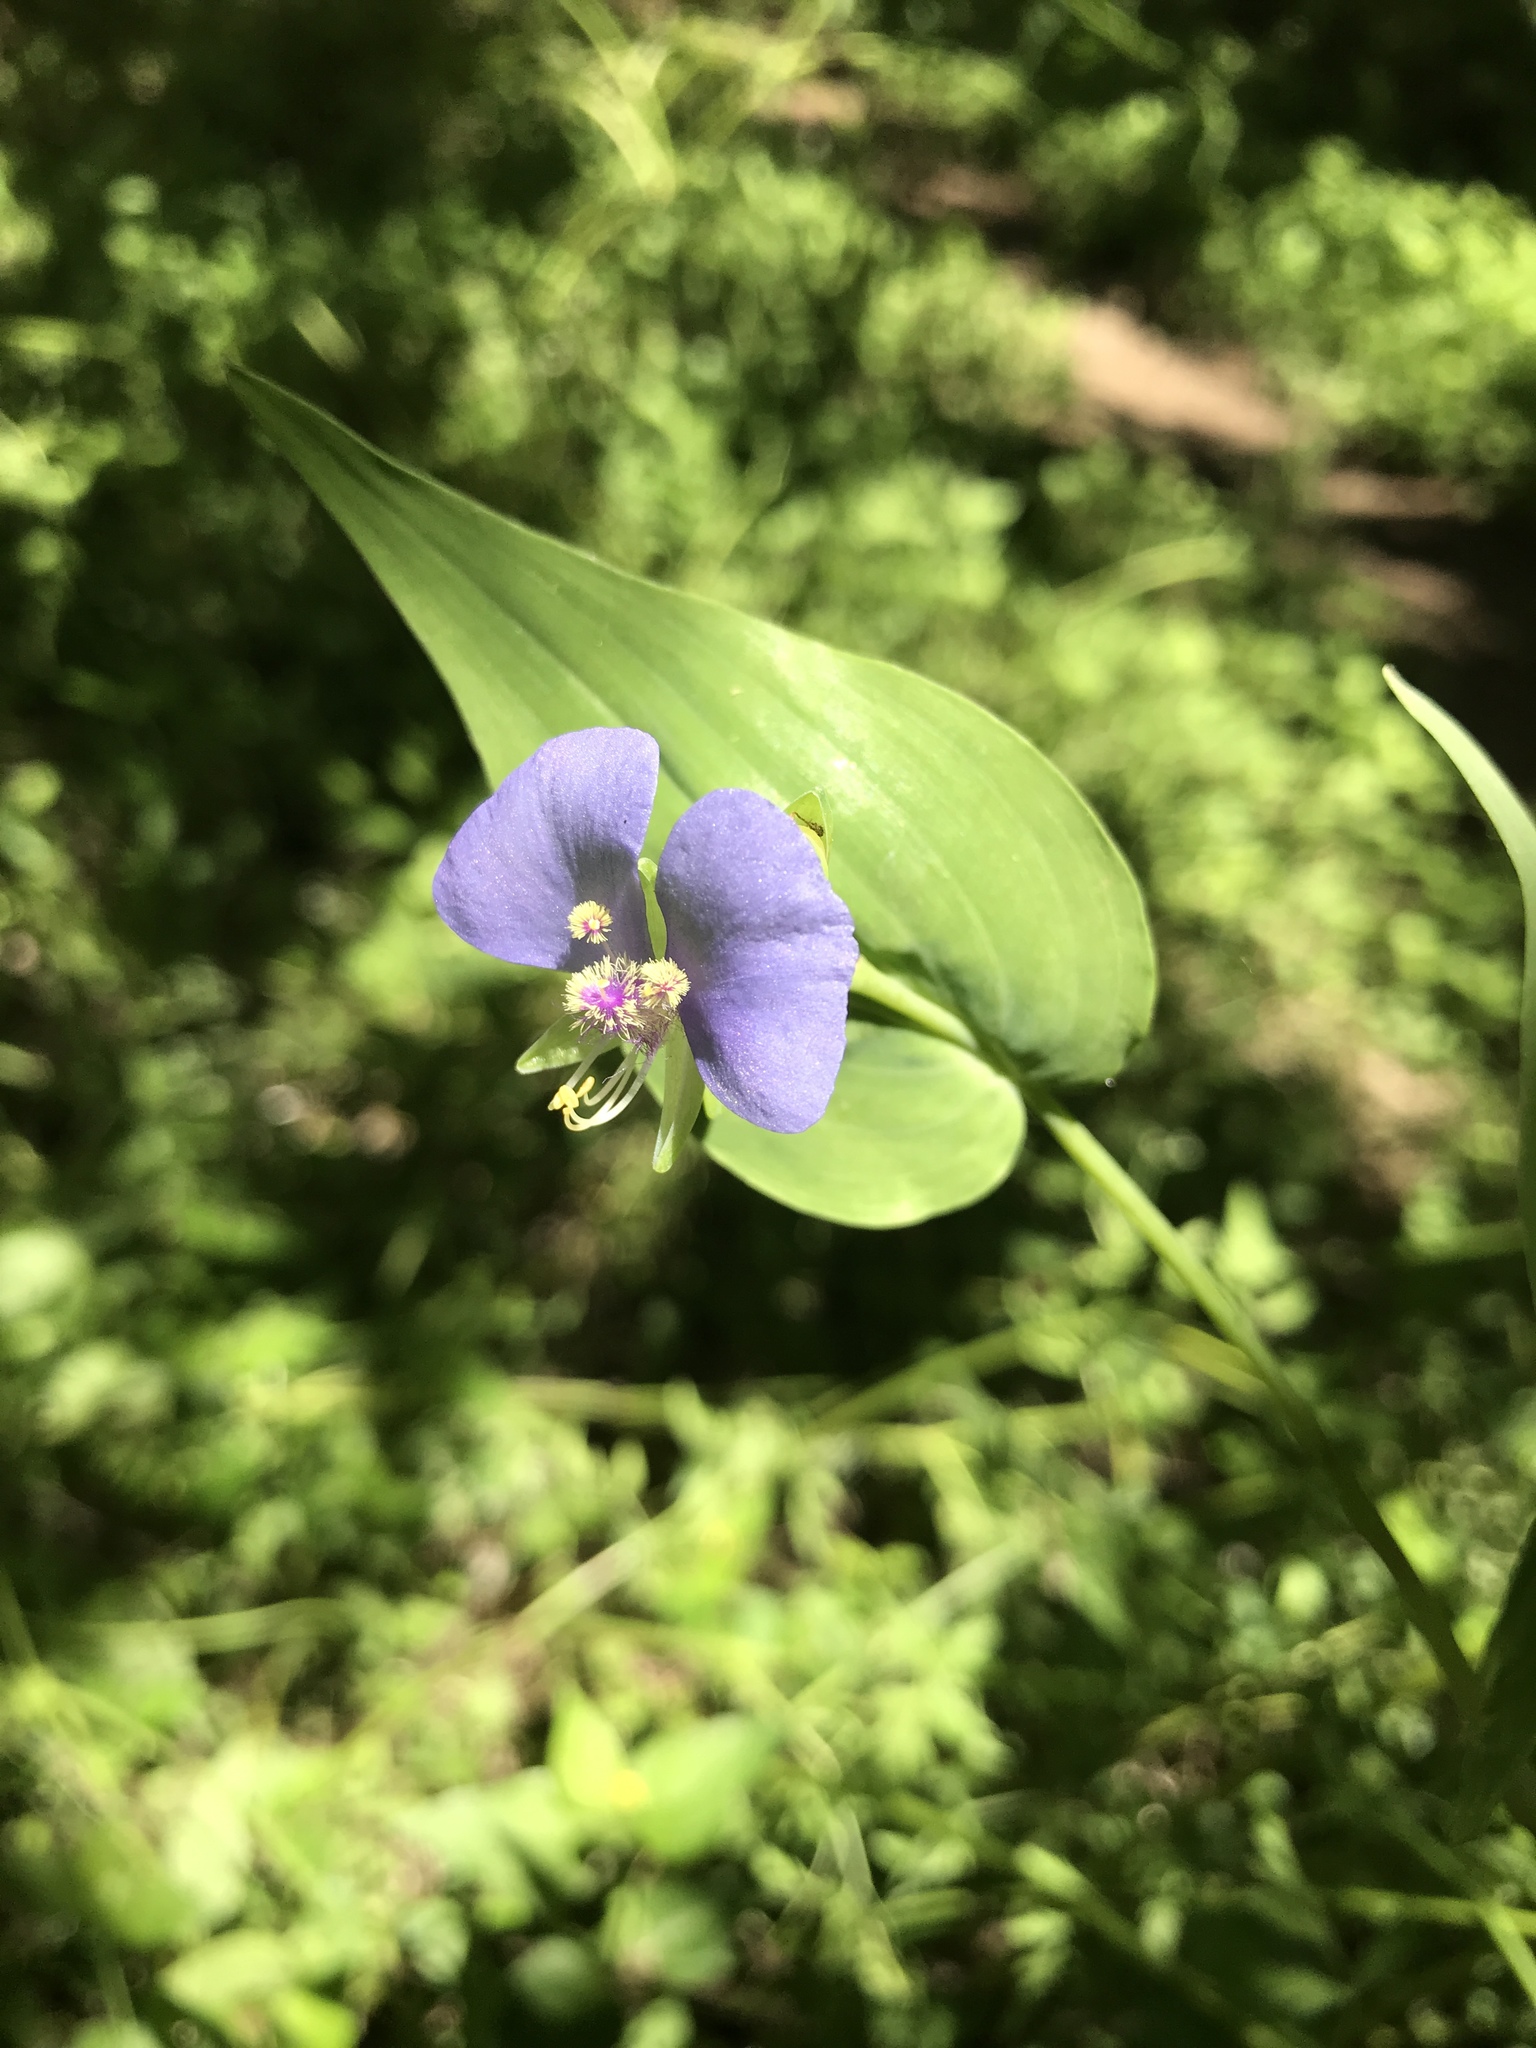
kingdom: Plantae
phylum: Tracheophyta
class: Liliopsida
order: Commelinales
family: Commelinaceae
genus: Tinantia
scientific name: Tinantia anomala
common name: False dayflower
